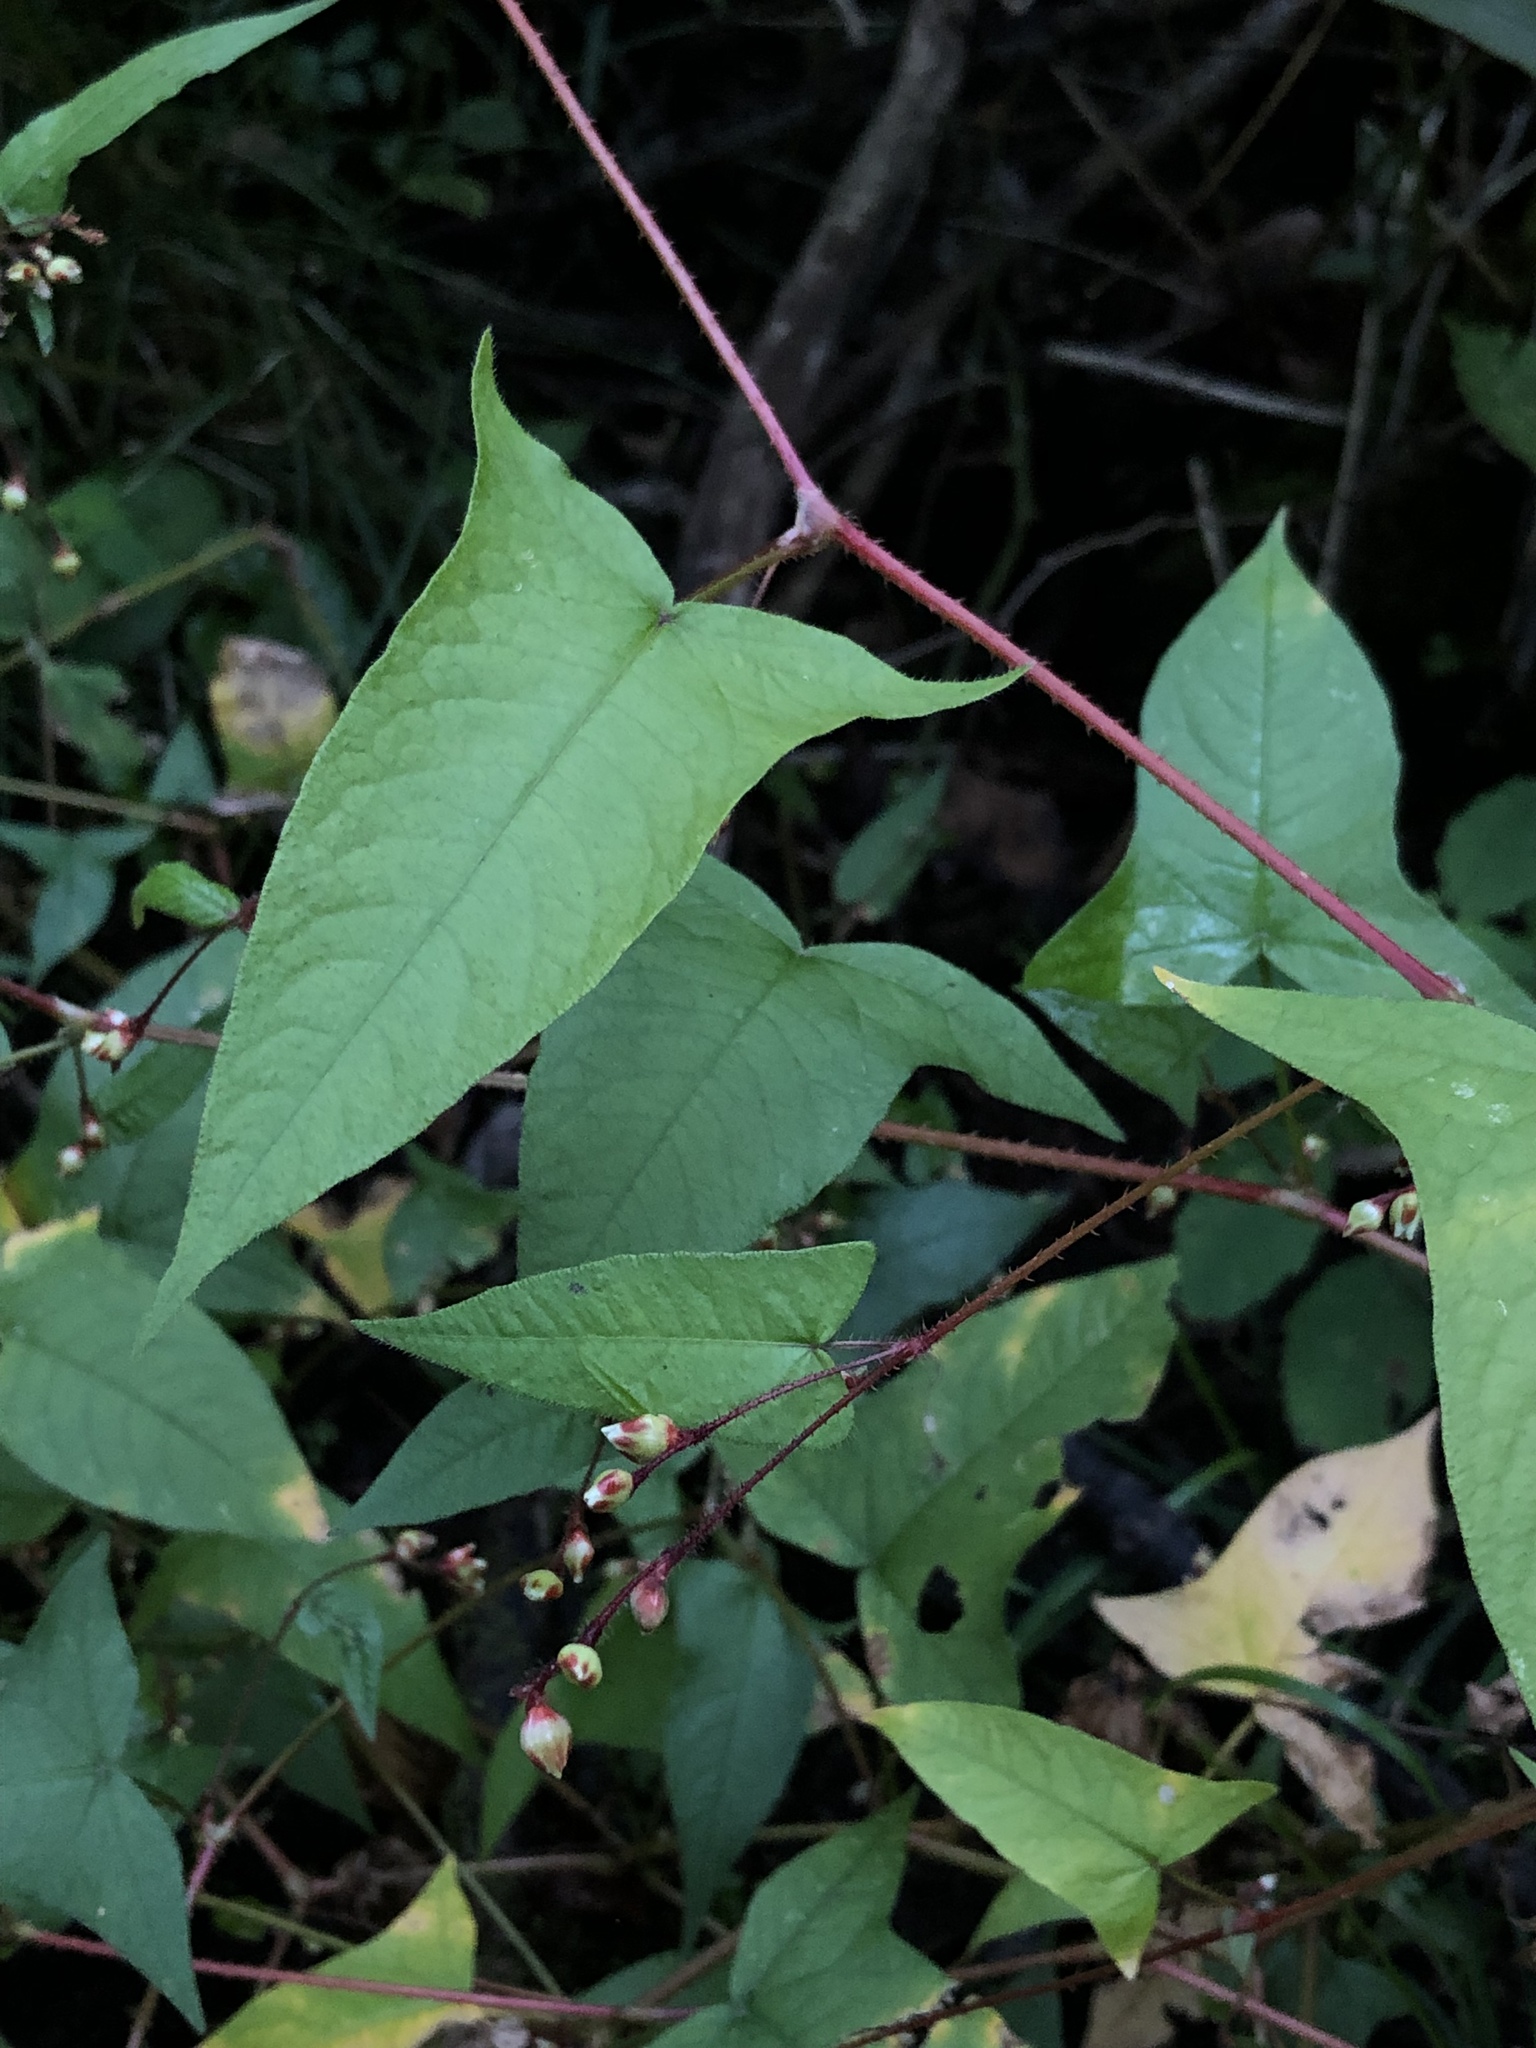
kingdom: Plantae
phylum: Tracheophyta
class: Magnoliopsida
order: Caryophyllales
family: Polygonaceae
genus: Persicaria
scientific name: Persicaria arifolia
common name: Halberd-leaved tear-thumb
